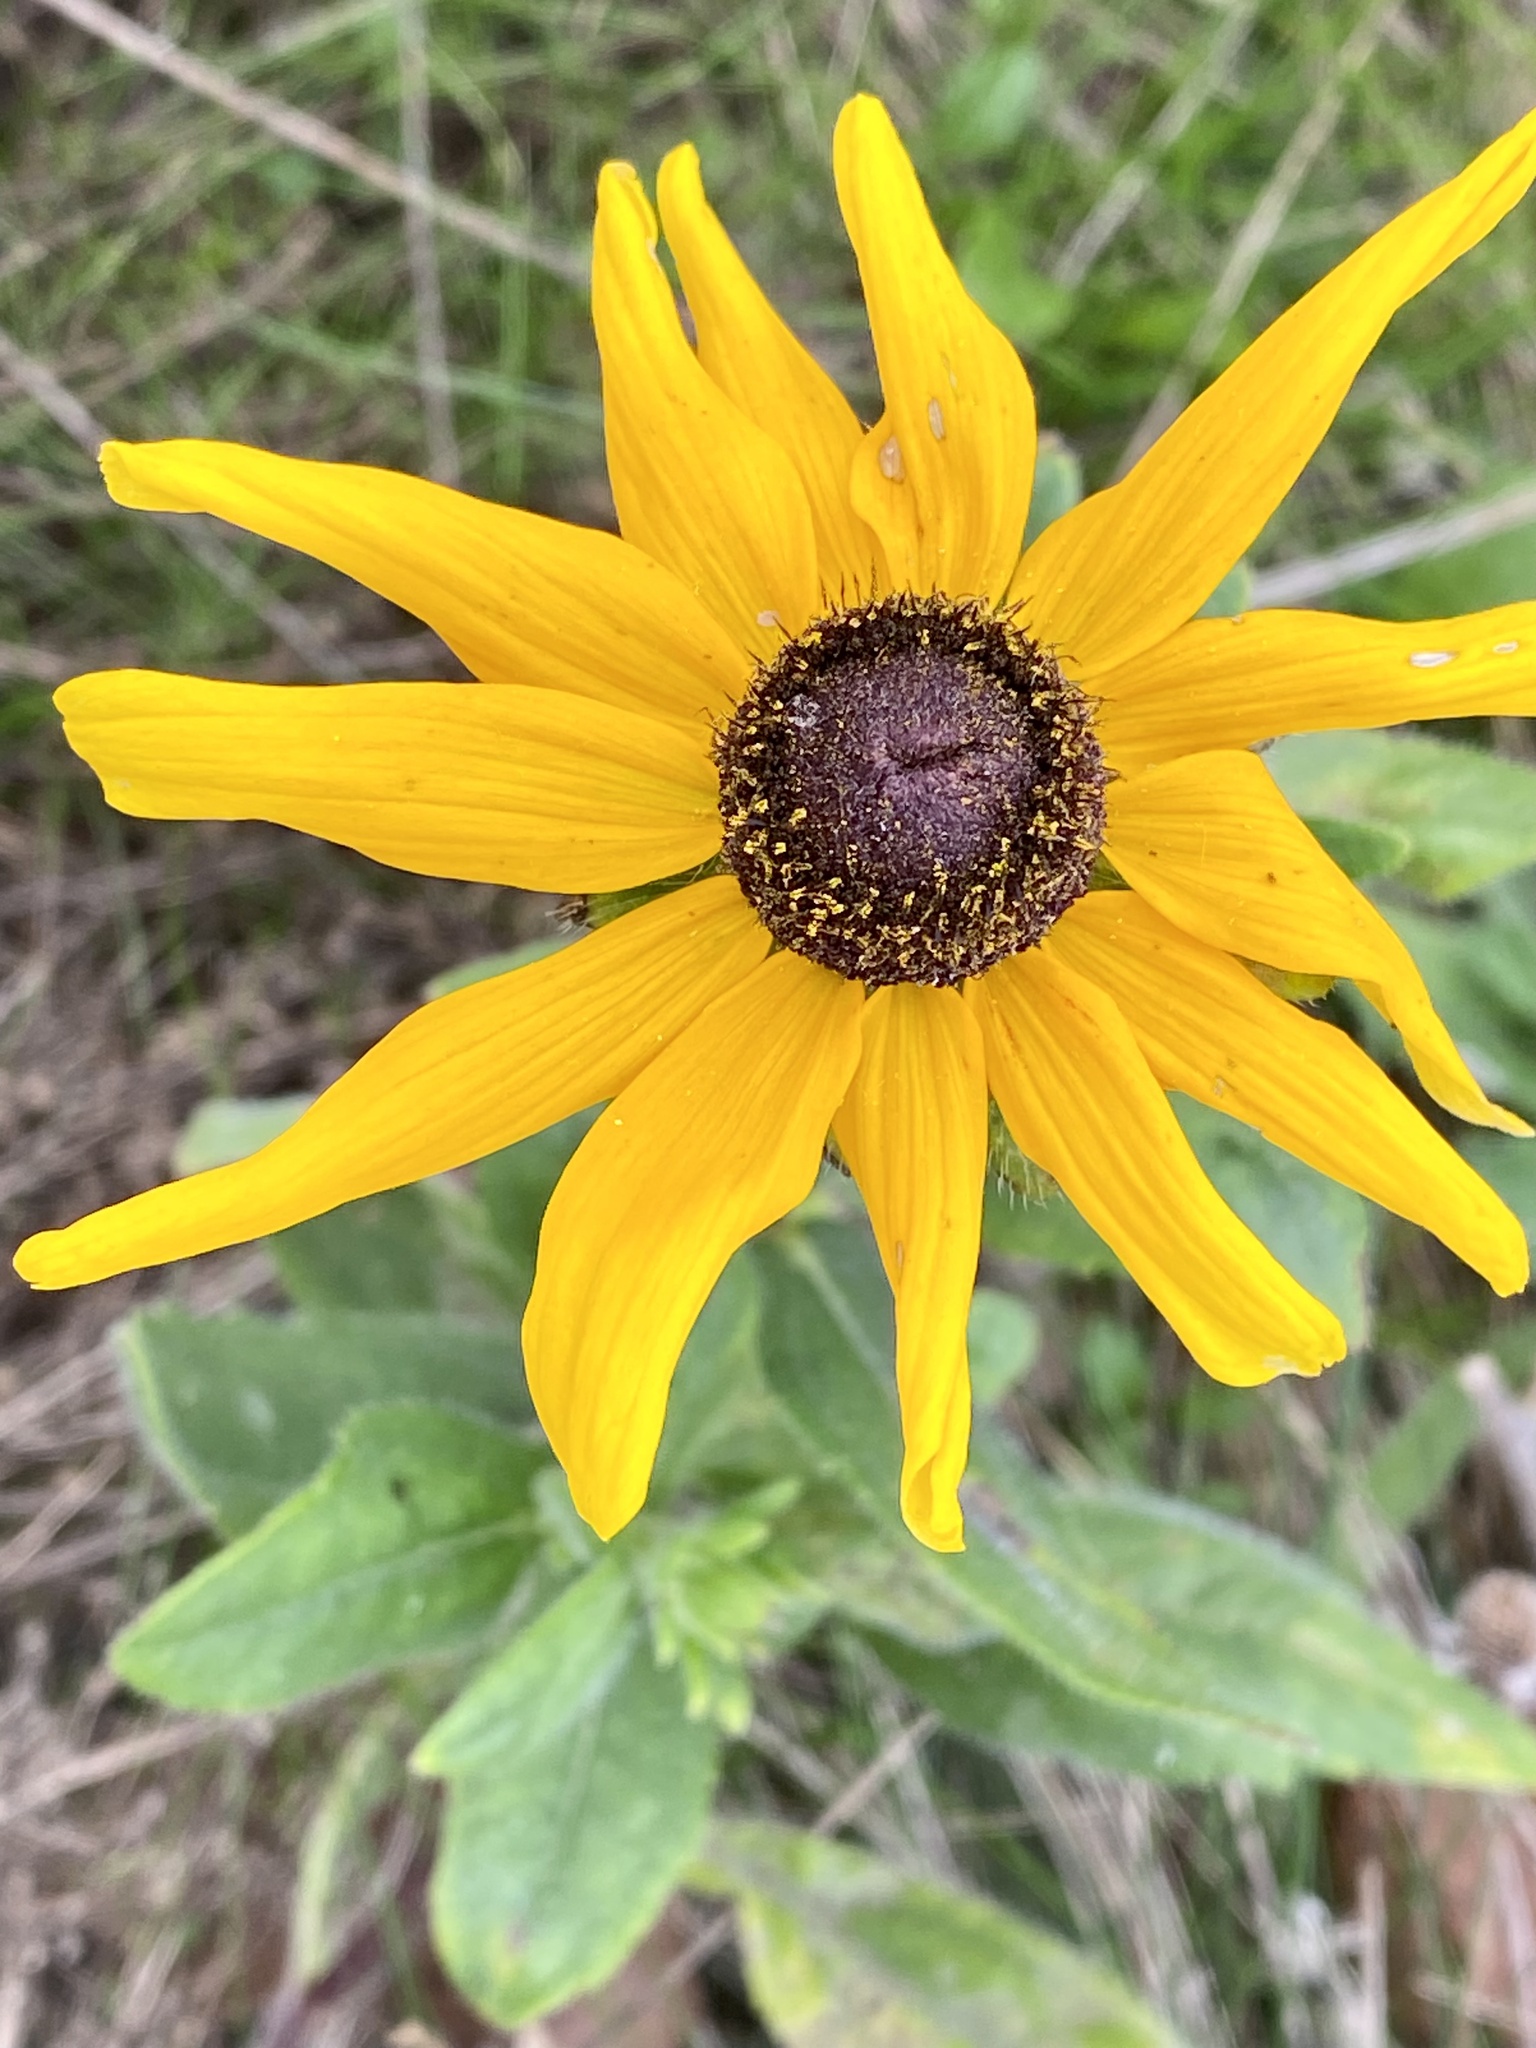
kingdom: Plantae
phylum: Tracheophyta
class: Magnoliopsida
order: Asterales
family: Asteraceae
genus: Rudbeckia
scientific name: Rudbeckia hirta
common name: Black-eyed-susan
